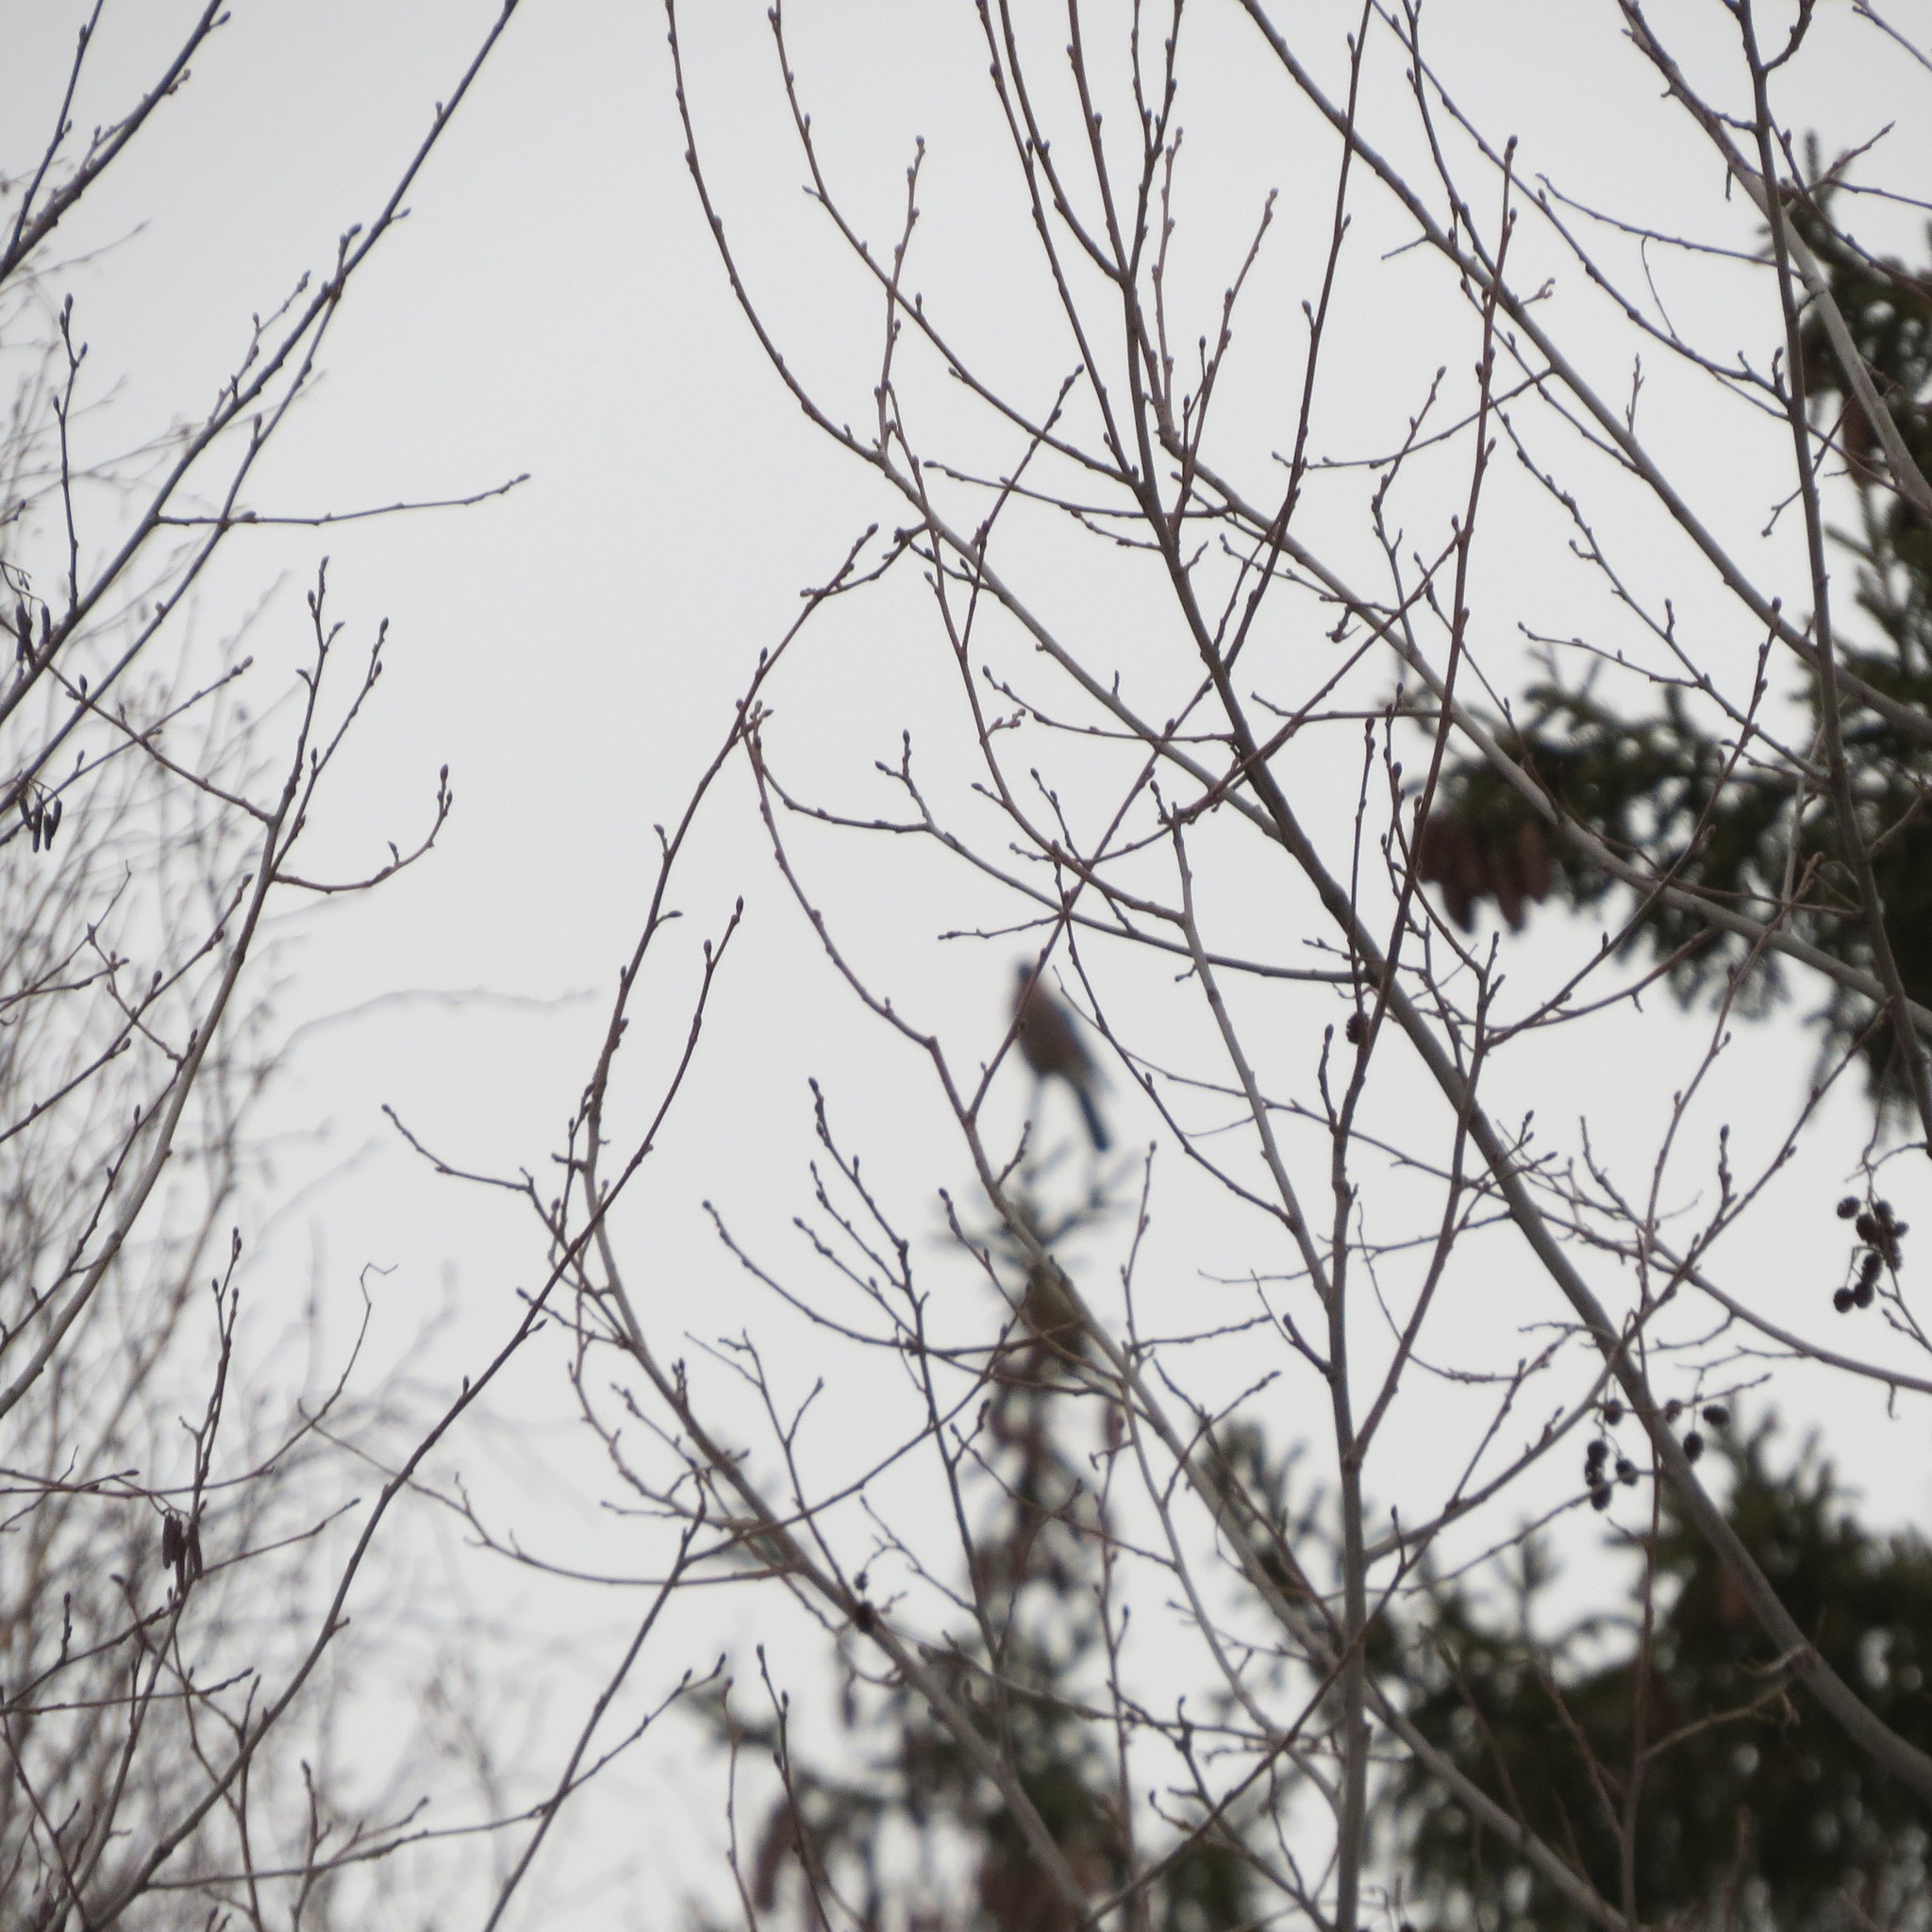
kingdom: Animalia
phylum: Chordata
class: Aves
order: Passeriformes
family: Corvidae
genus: Garrulus
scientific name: Garrulus glandarius
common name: Eurasian jay
